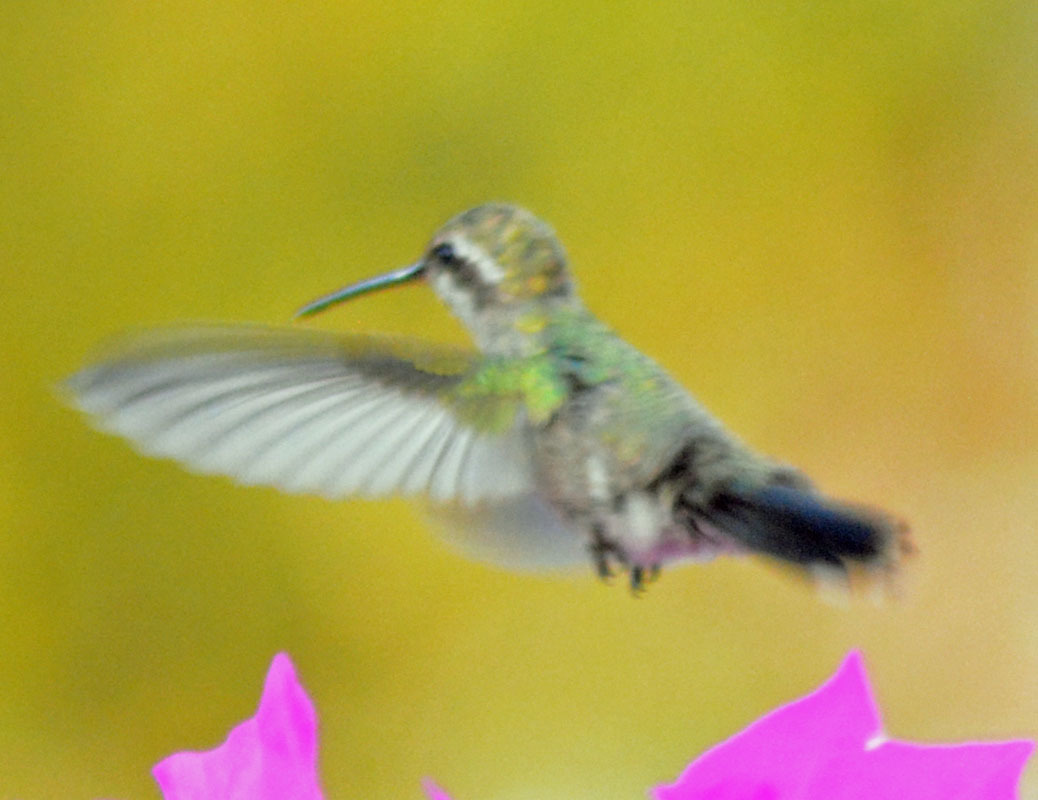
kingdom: Animalia
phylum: Chordata
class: Aves
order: Apodiformes
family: Trochilidae
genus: Cynanthus
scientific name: Cynanthus latirostris
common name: Broad-billed hummingbird
